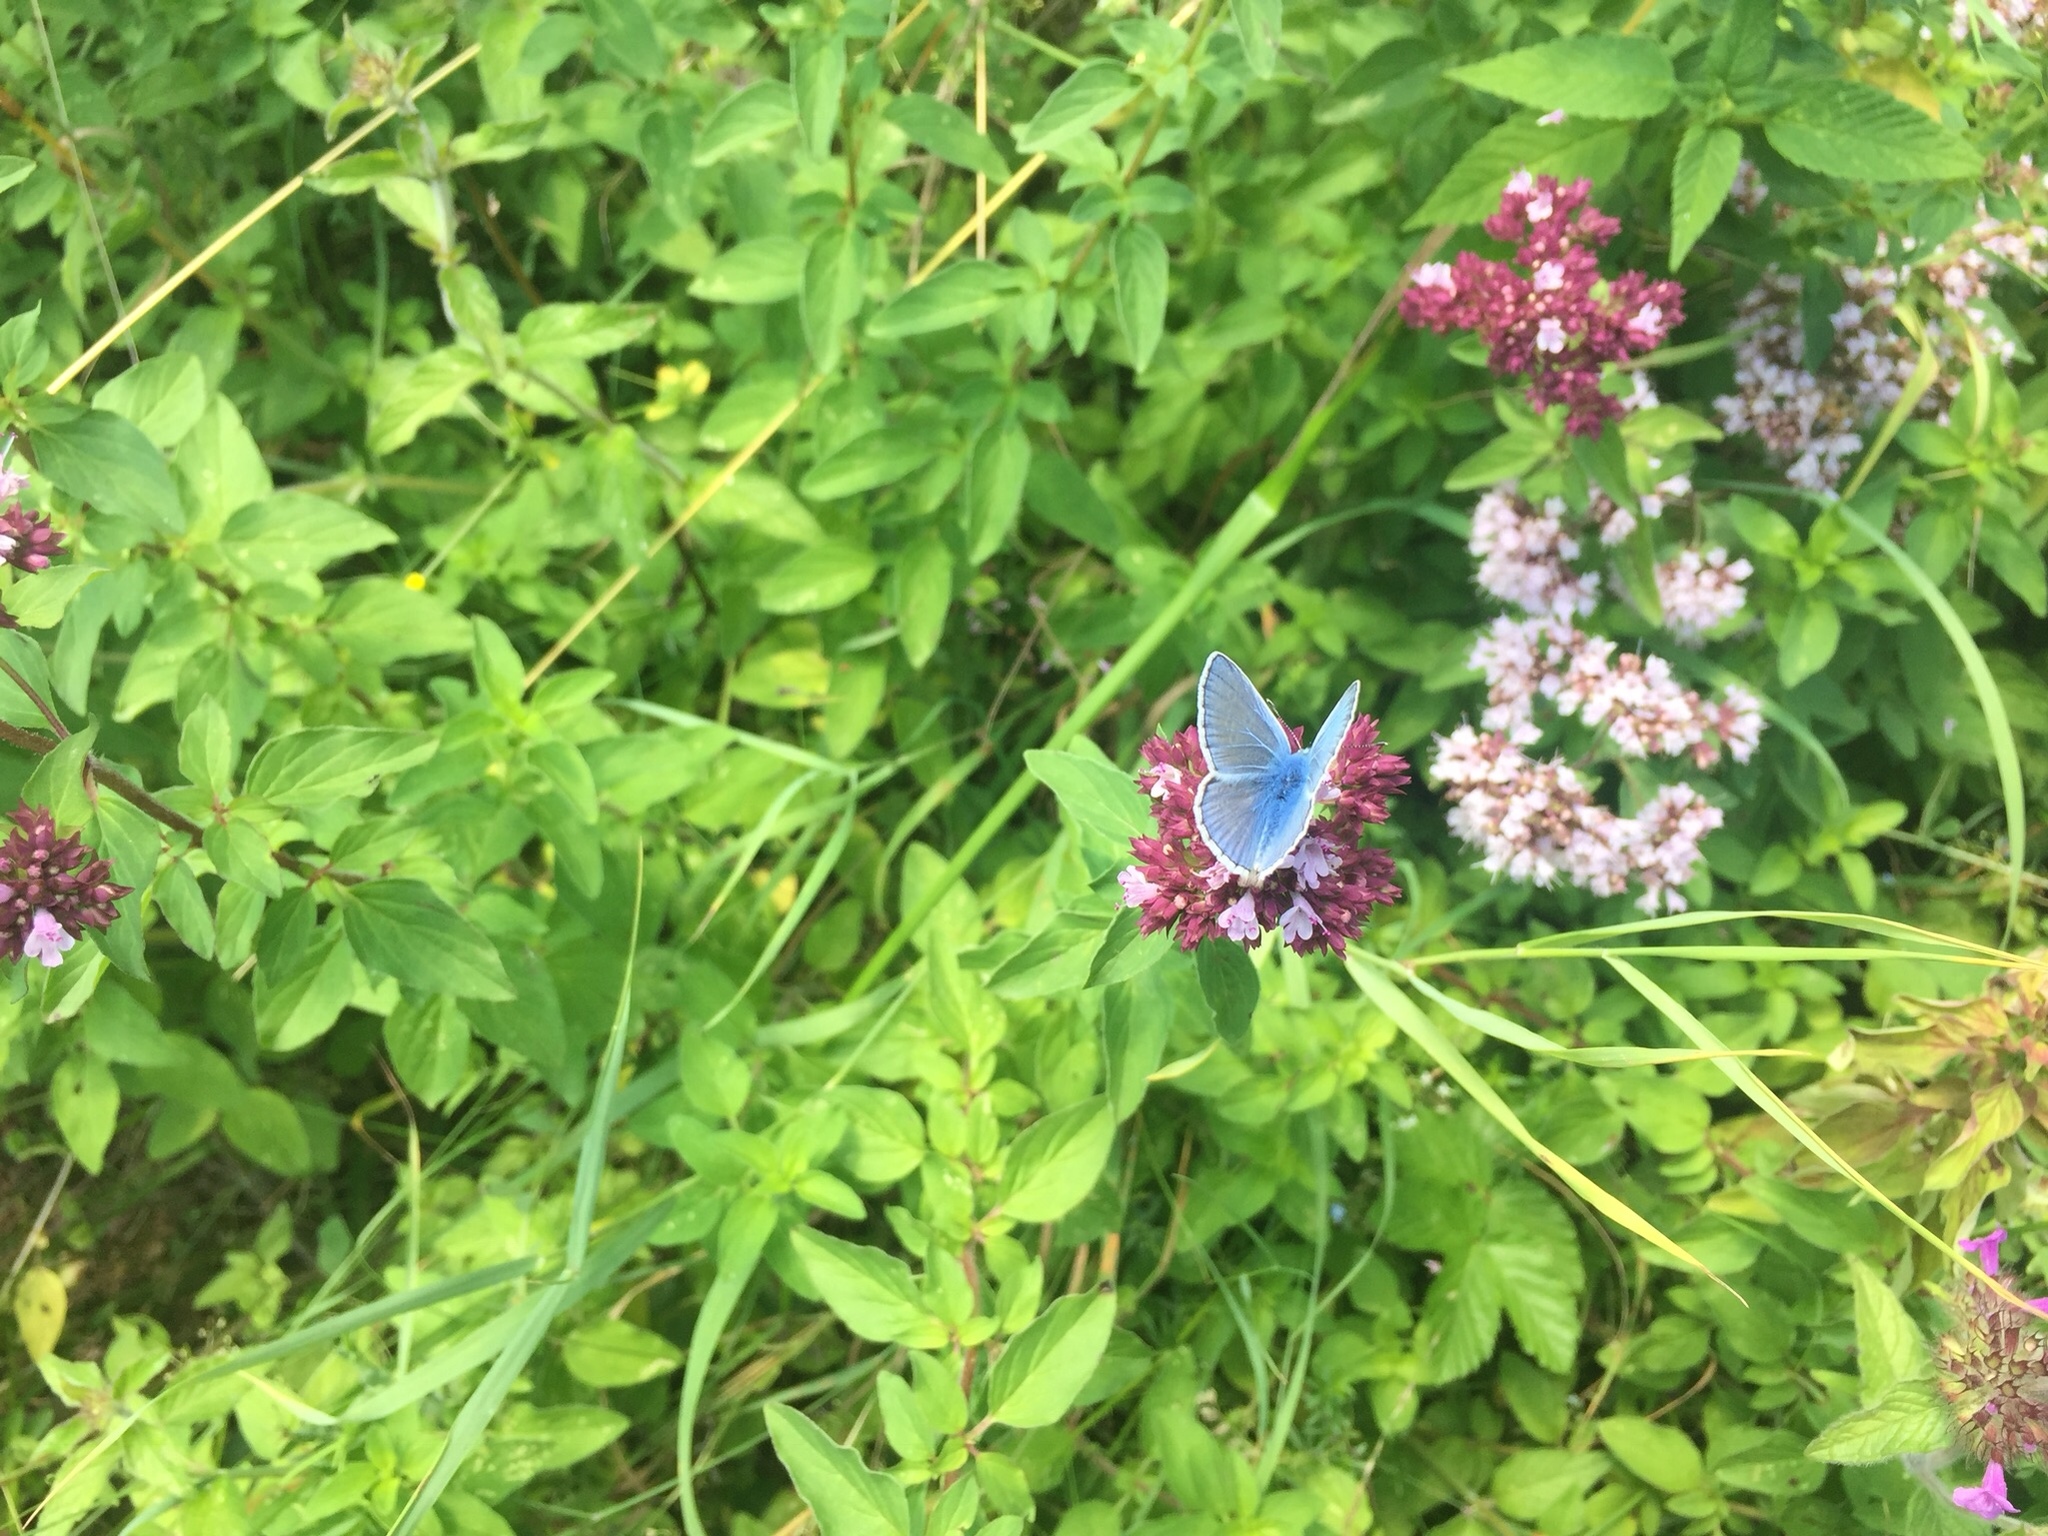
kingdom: Animalia
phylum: Arthropoda
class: Insecta
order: Lepidoptera
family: Lycaenidae
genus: Polyommatus
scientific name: Polyommatus icarus
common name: Common blue
